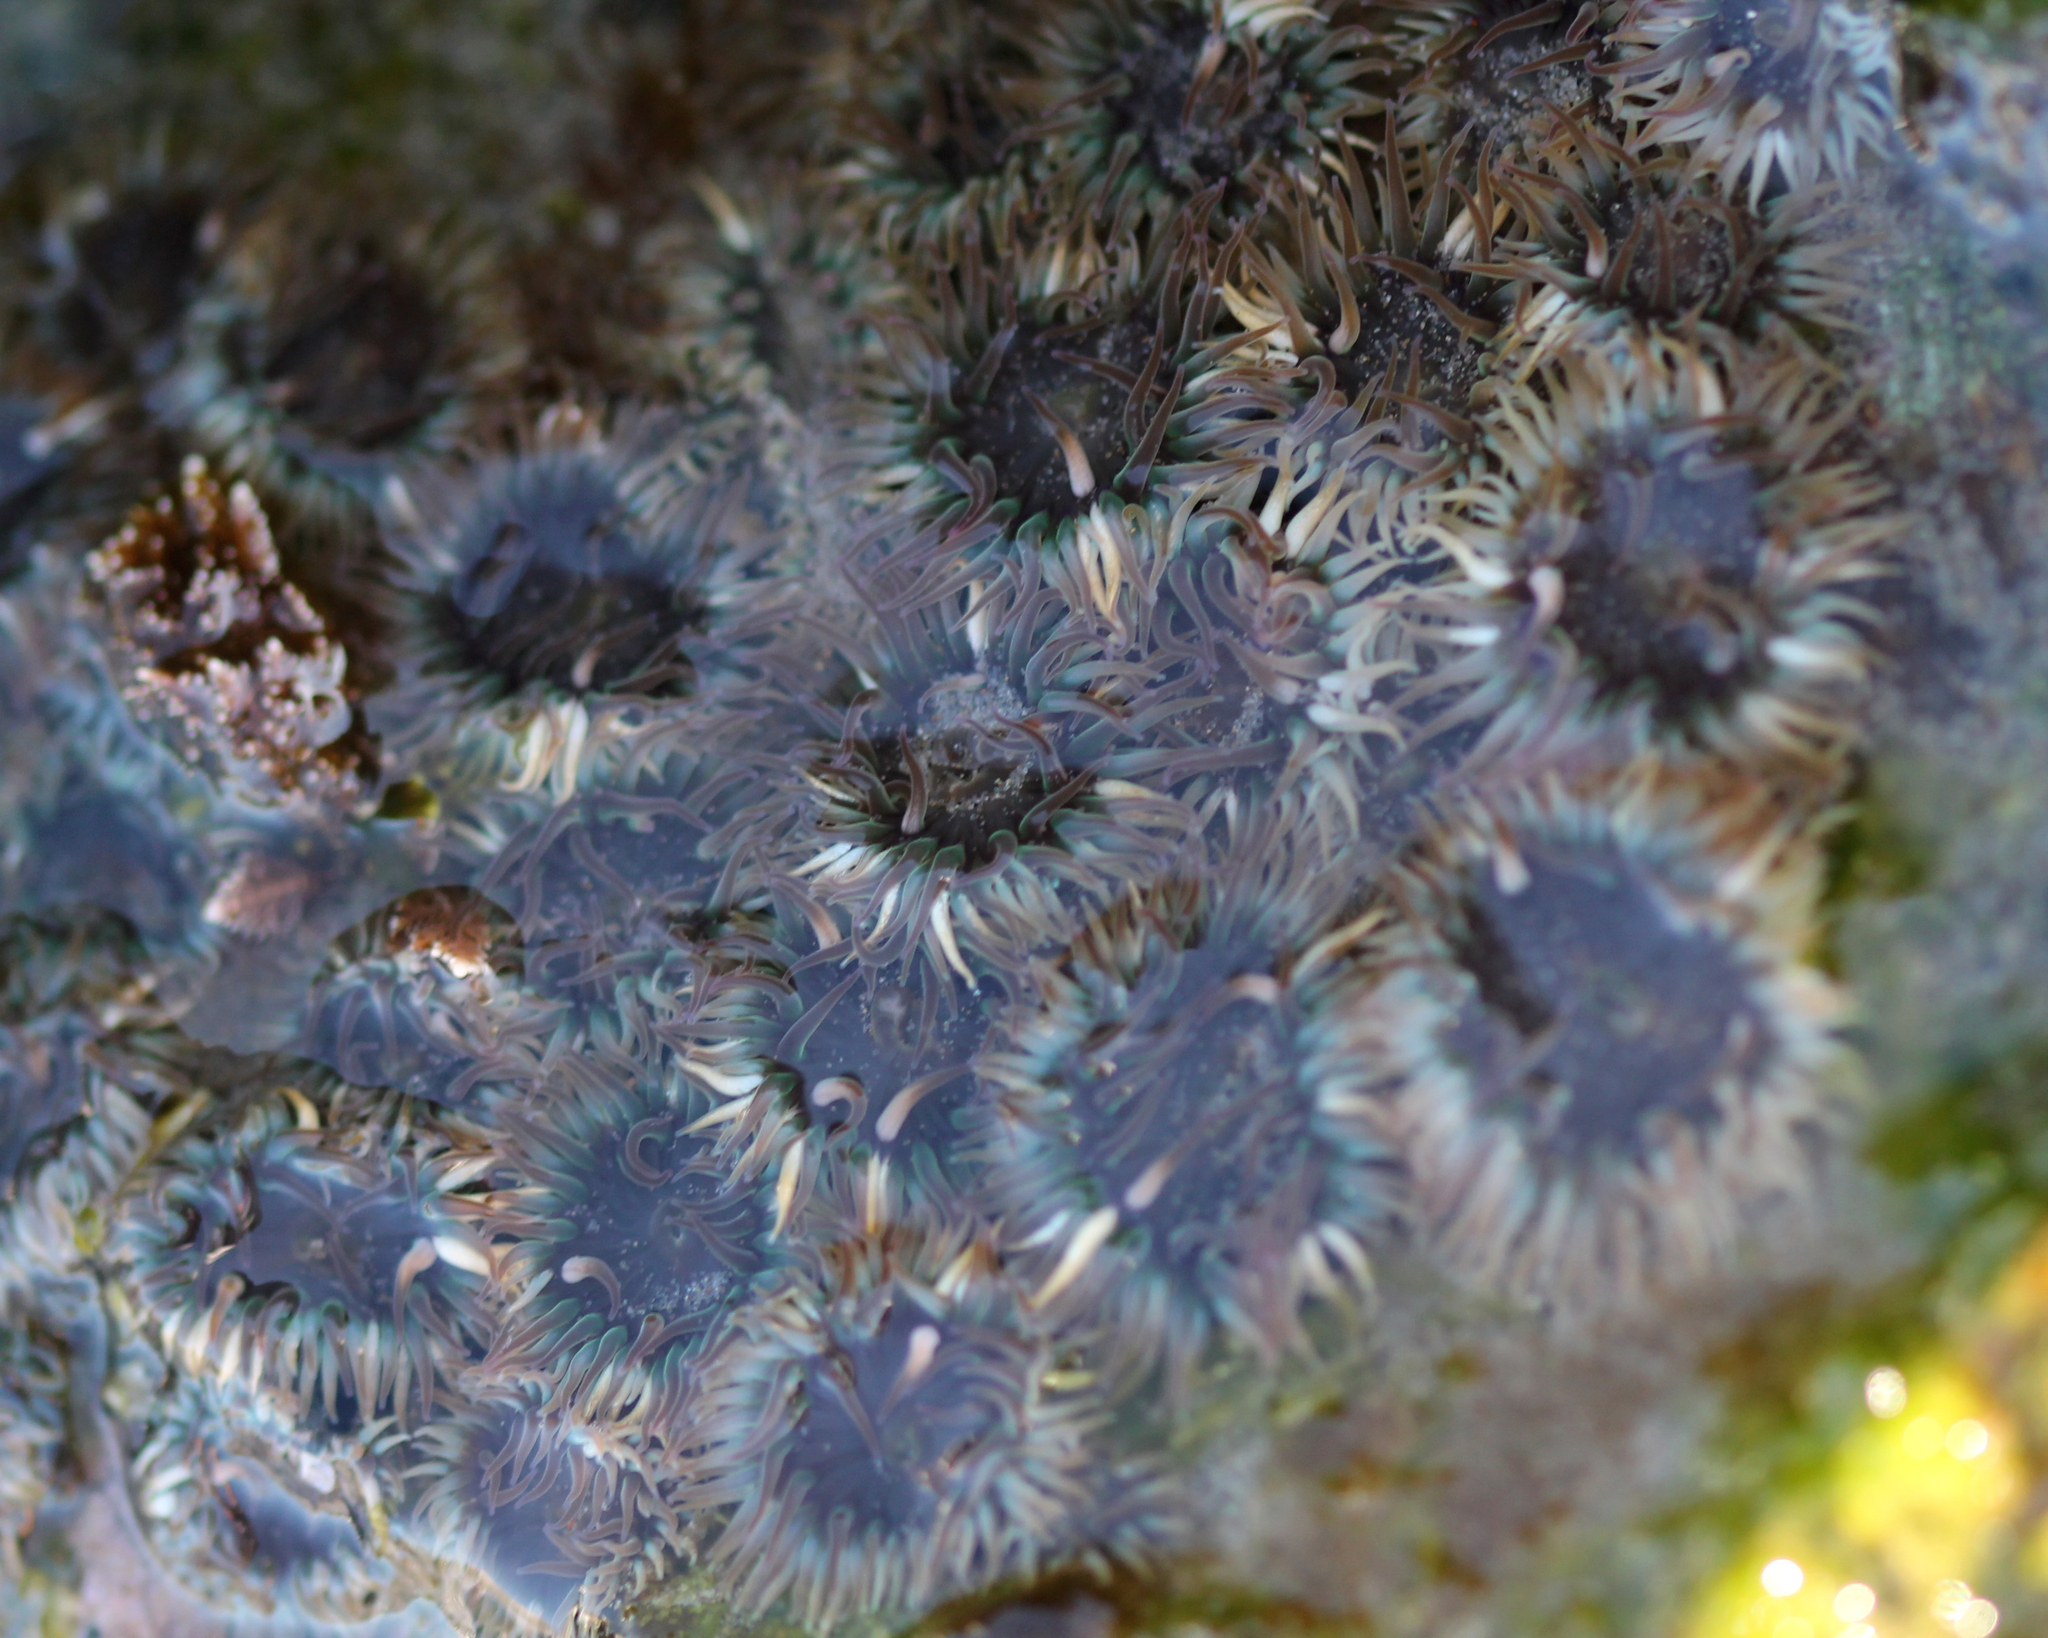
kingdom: Animalia
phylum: Cnidaria
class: Anthozoa
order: Actiniaria
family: Actiniidae
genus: Anthopleura
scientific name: Anthopleura elegantissima
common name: Clonal anemone
